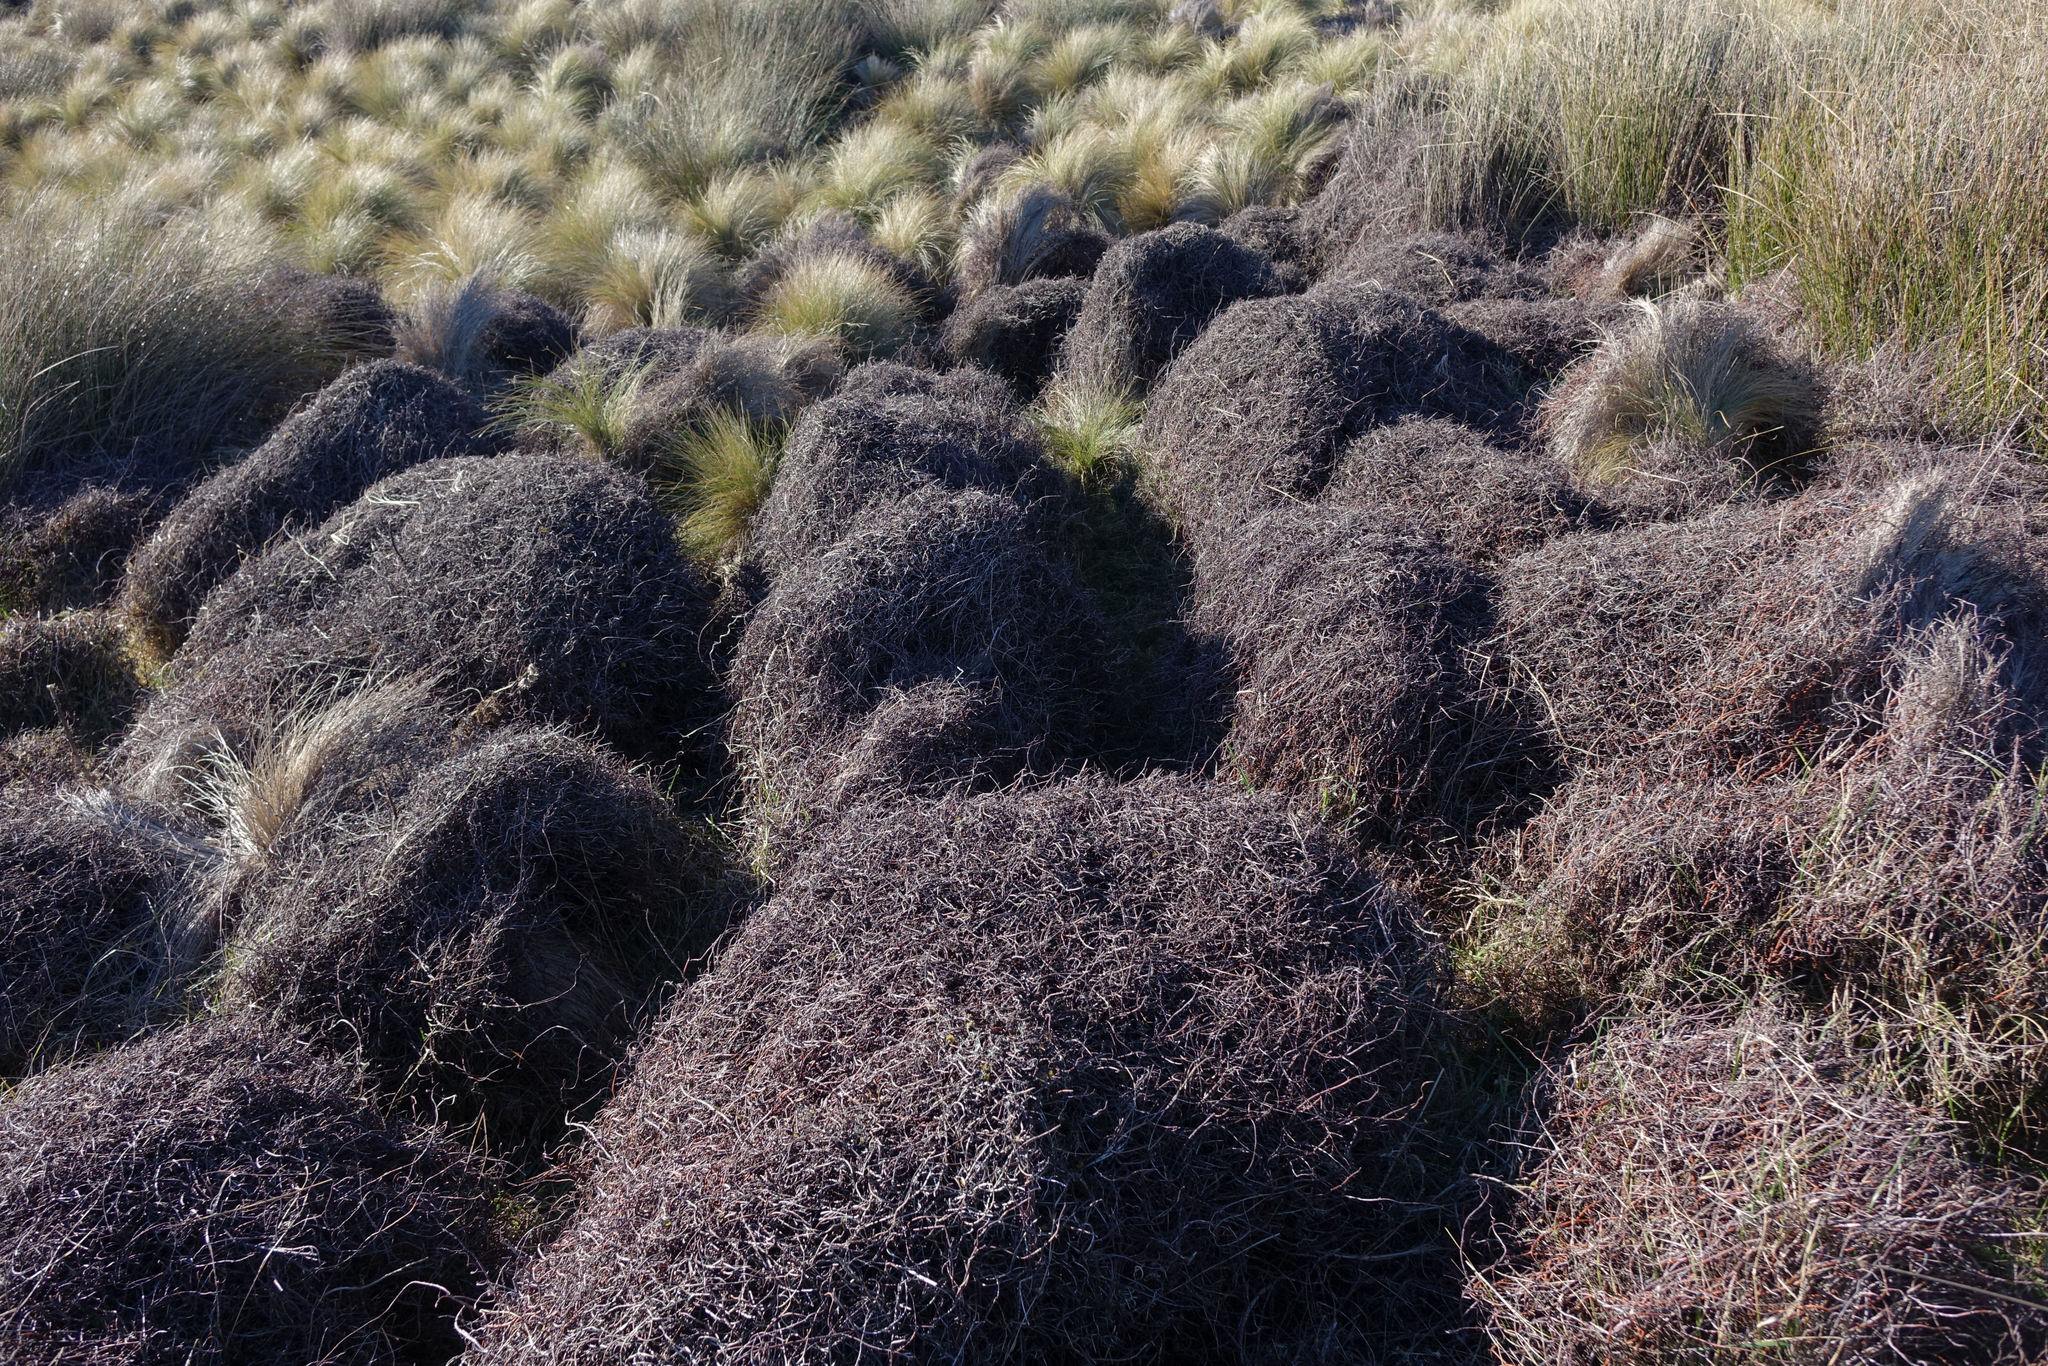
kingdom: Plantae
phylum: Tracheophyta
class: Magnoliopsida
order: Caryophyllales
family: Polygonaceae
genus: Muehlenbeckia
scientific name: Muehlenbeckia complexa
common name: Wireplant
